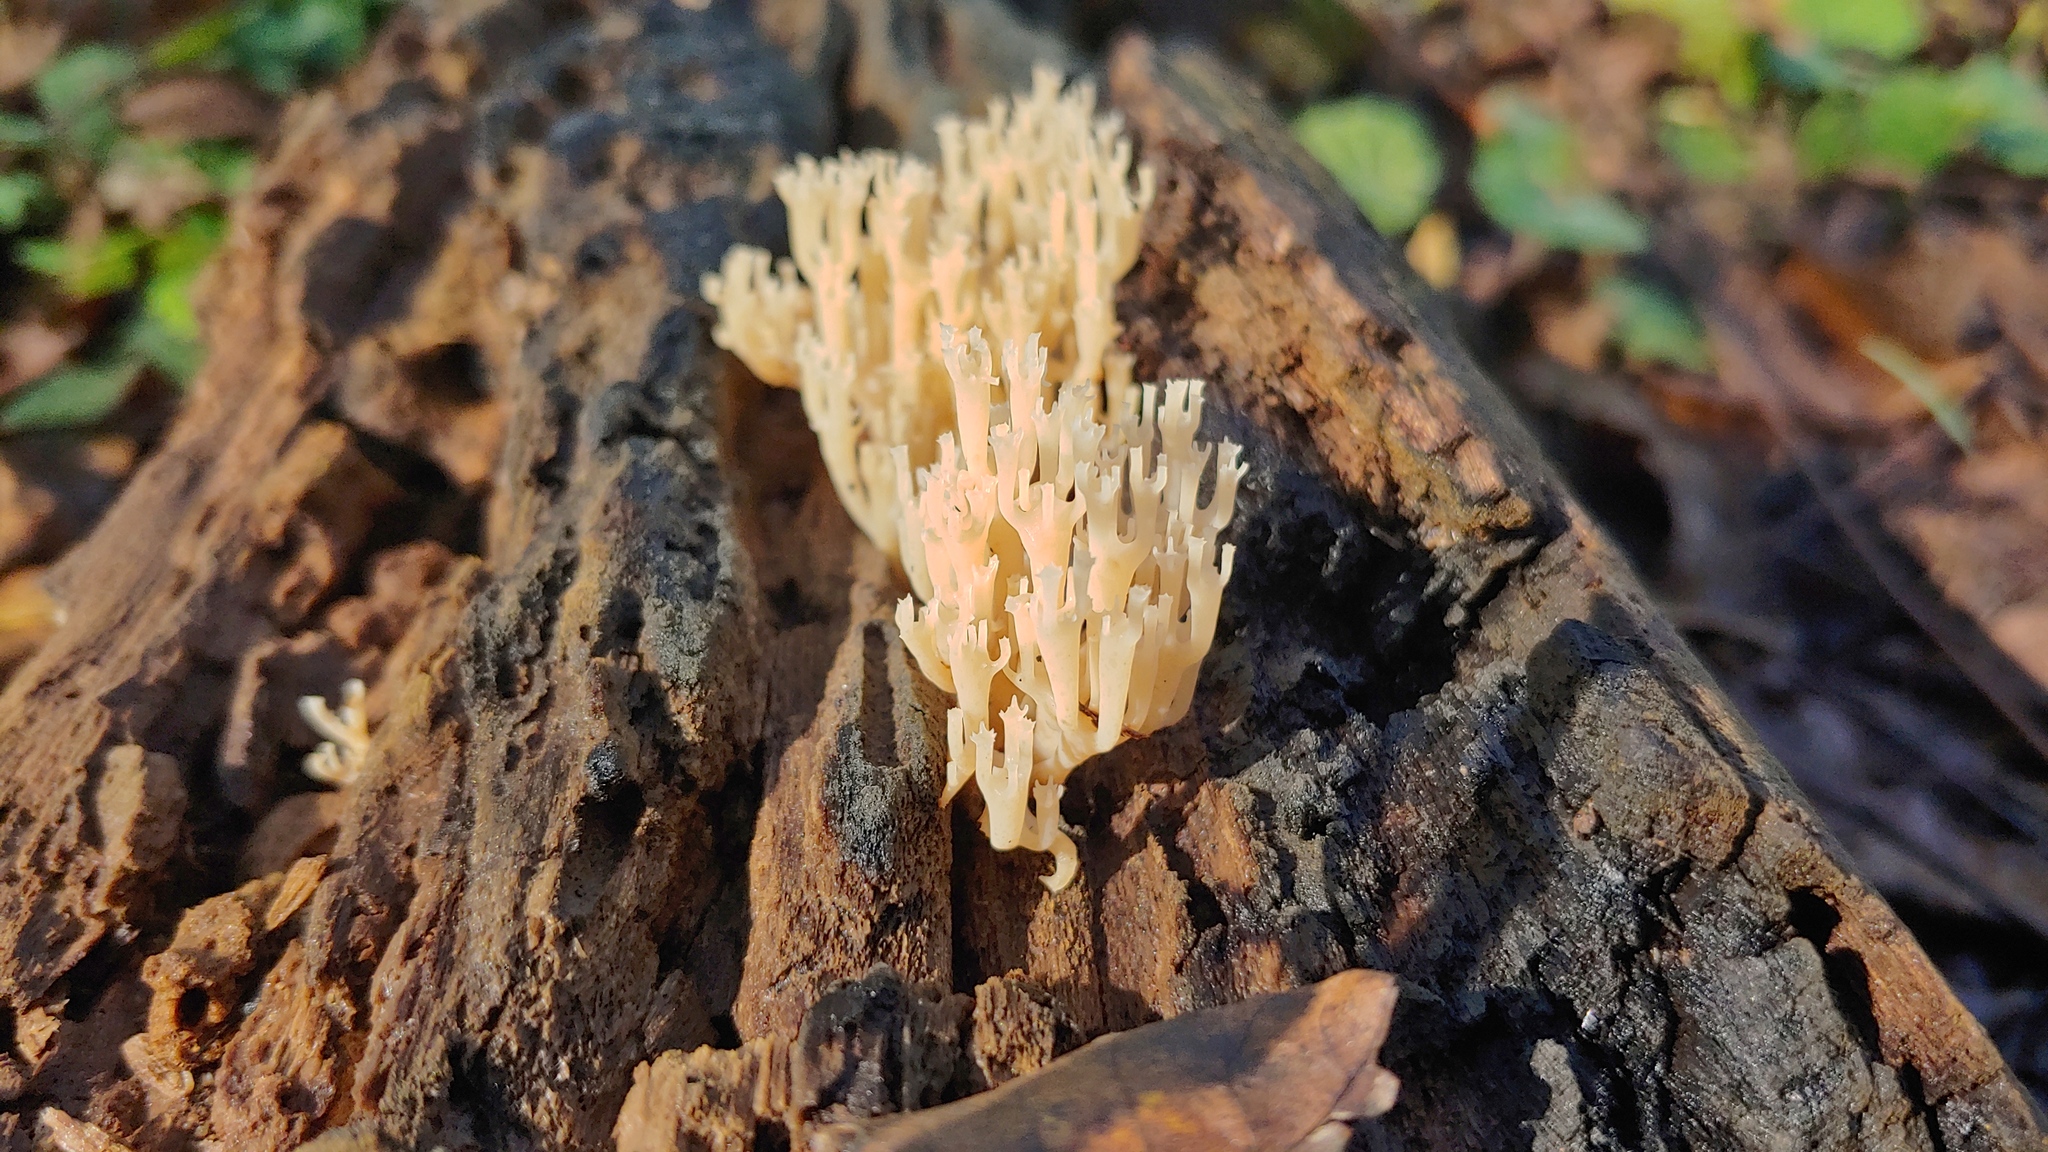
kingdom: Fungi
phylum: Basidiomycota
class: Agaricomycetes
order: Russulales
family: Auriscalpiaceae
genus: Artomyces
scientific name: Artomyces pyxidatus
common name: Crown-tipped coral fungus
